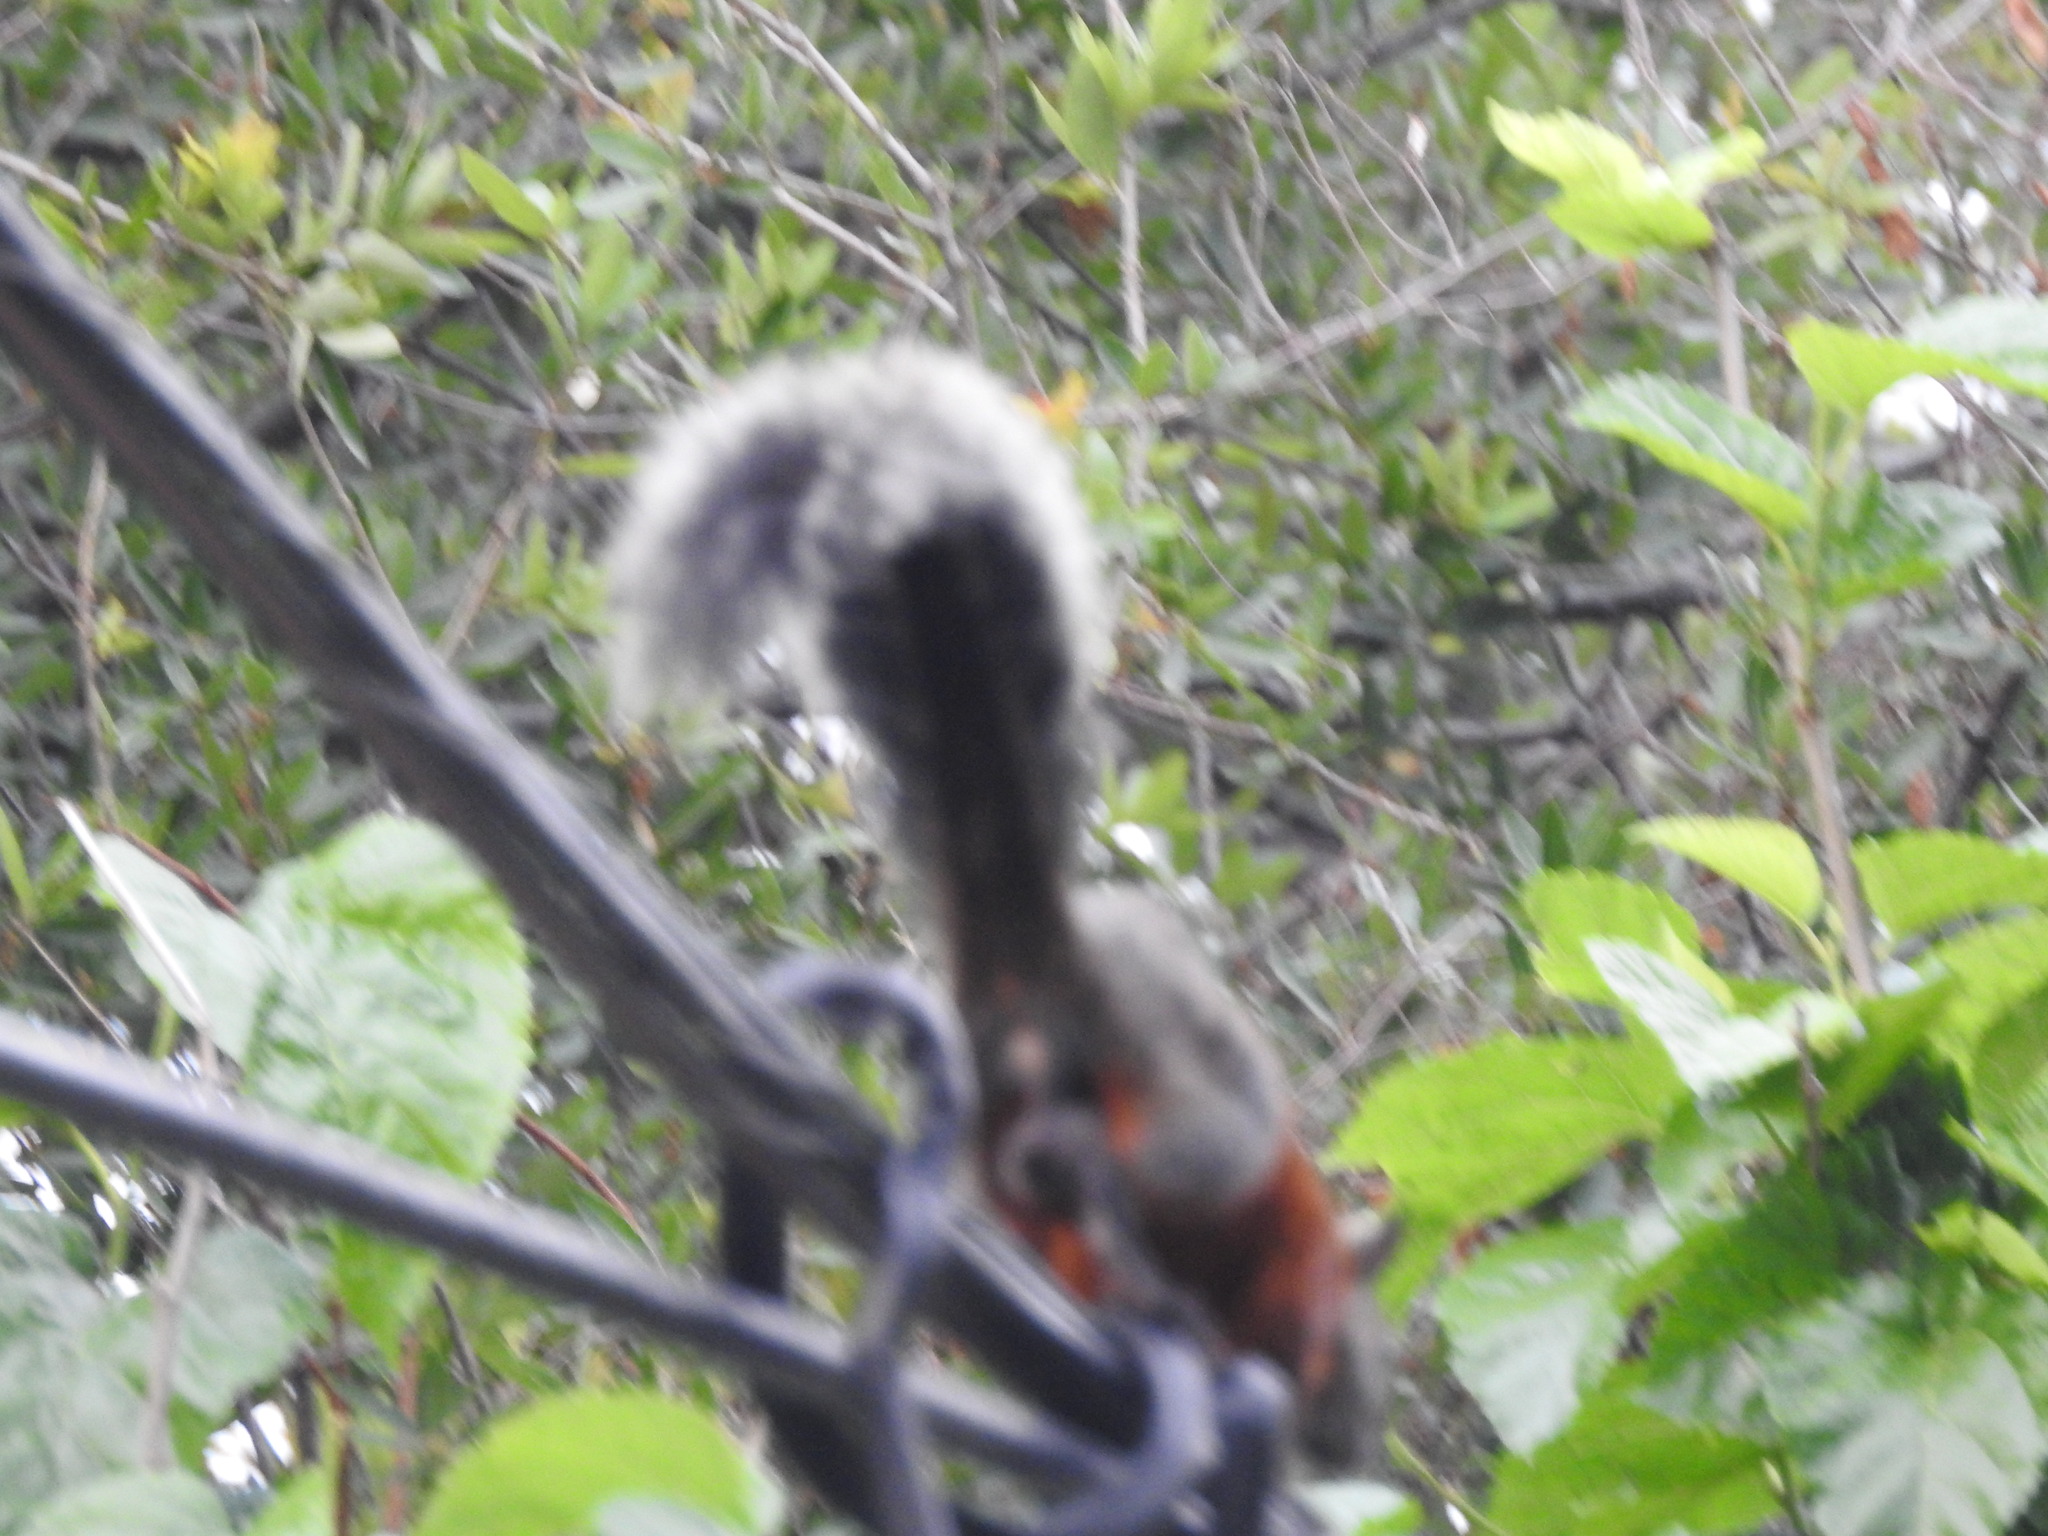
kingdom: Animalia
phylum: Chordata
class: Mammalia
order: Rodentia
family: Sciuridae
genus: Sciurus
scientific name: Sciurus aureogaster
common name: Red-bellied squirrel
